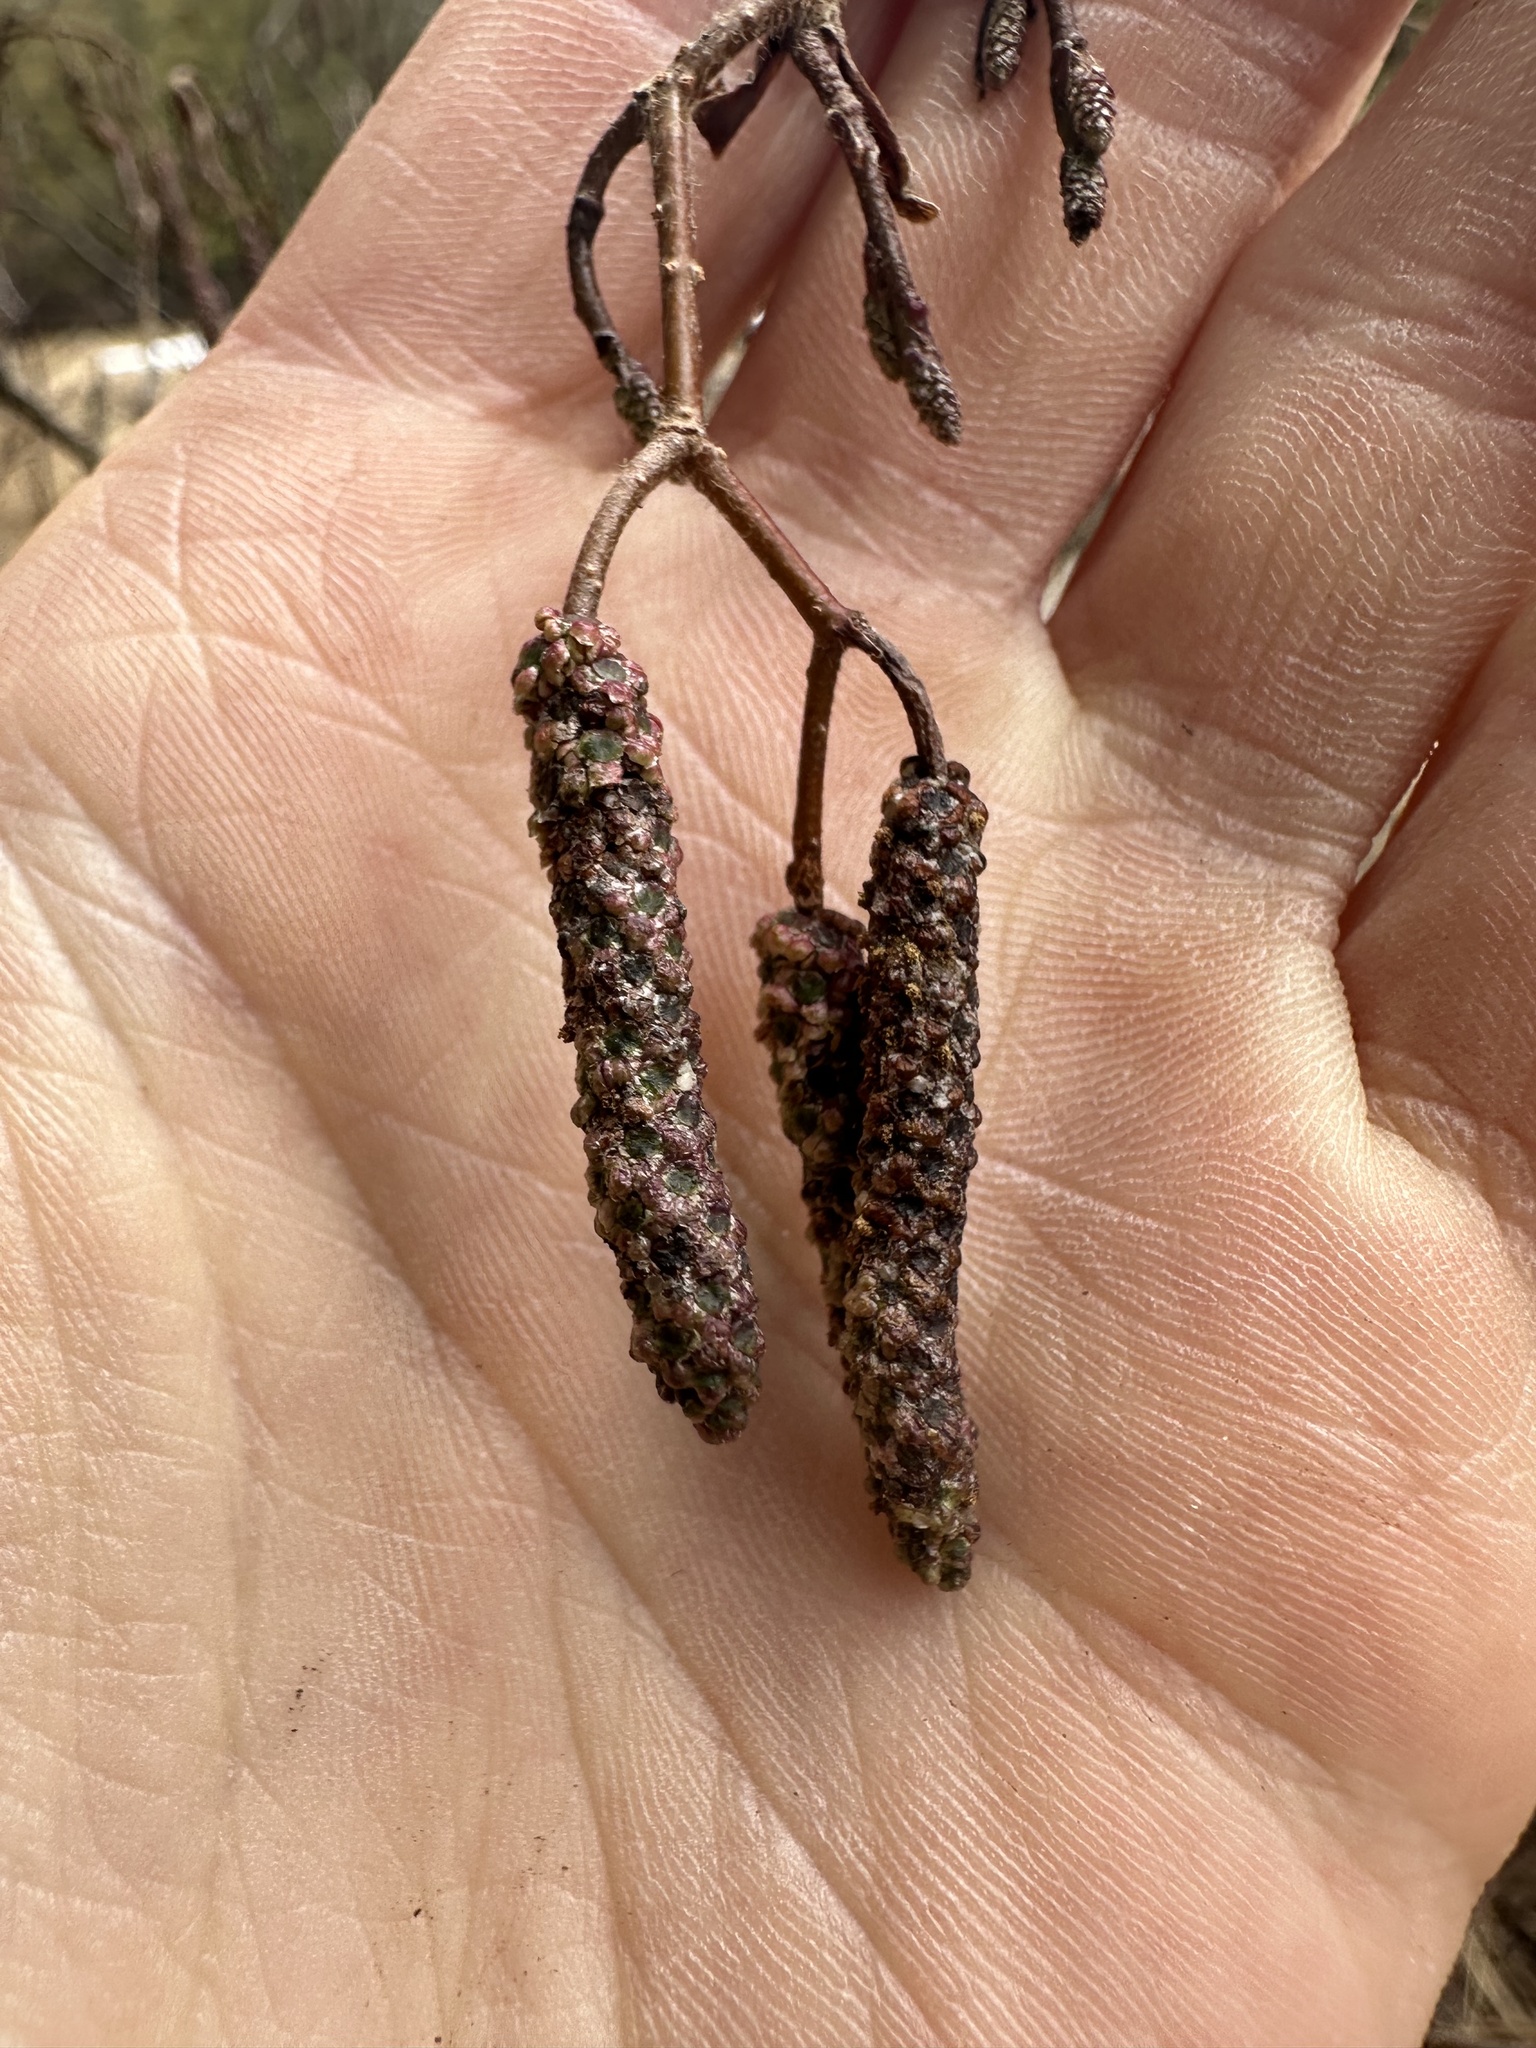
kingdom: Plantae
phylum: Tracheophyta
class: Magnoliopsida
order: Fagales
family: Betulaceae
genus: Alnus
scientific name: Alnus incana
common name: Grey alder
